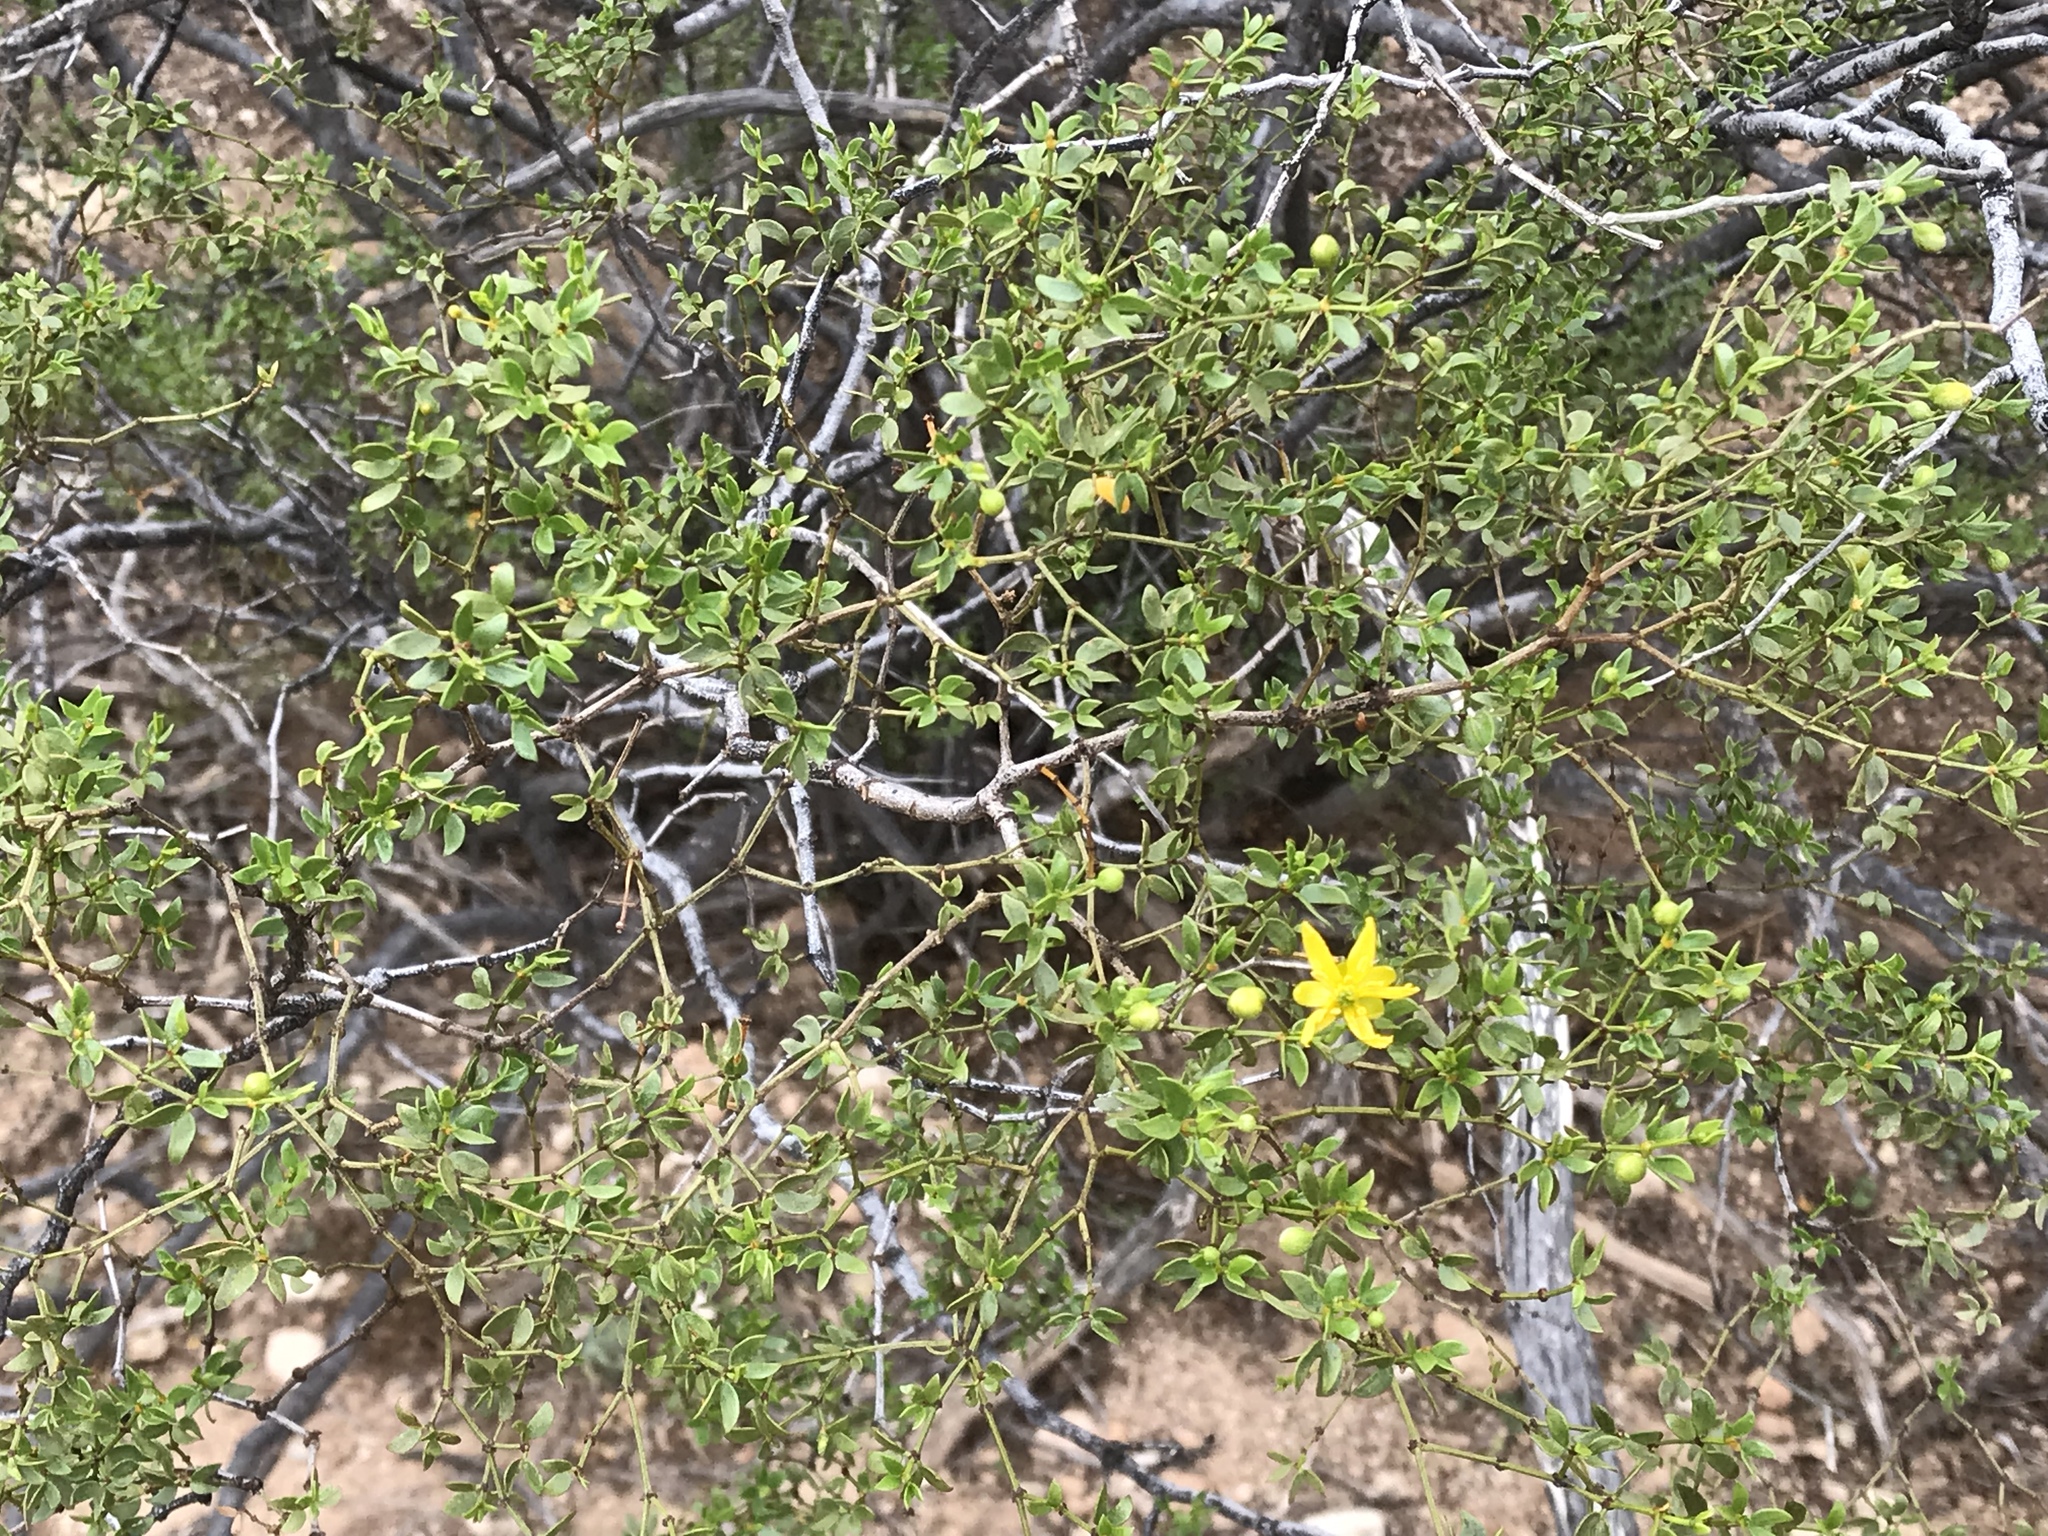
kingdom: Plantae
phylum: Tracheophyta
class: Magnoliopsida
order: Zygophyllales
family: Zygophyllaceae
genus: Larrea
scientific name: Larrea tridentata
